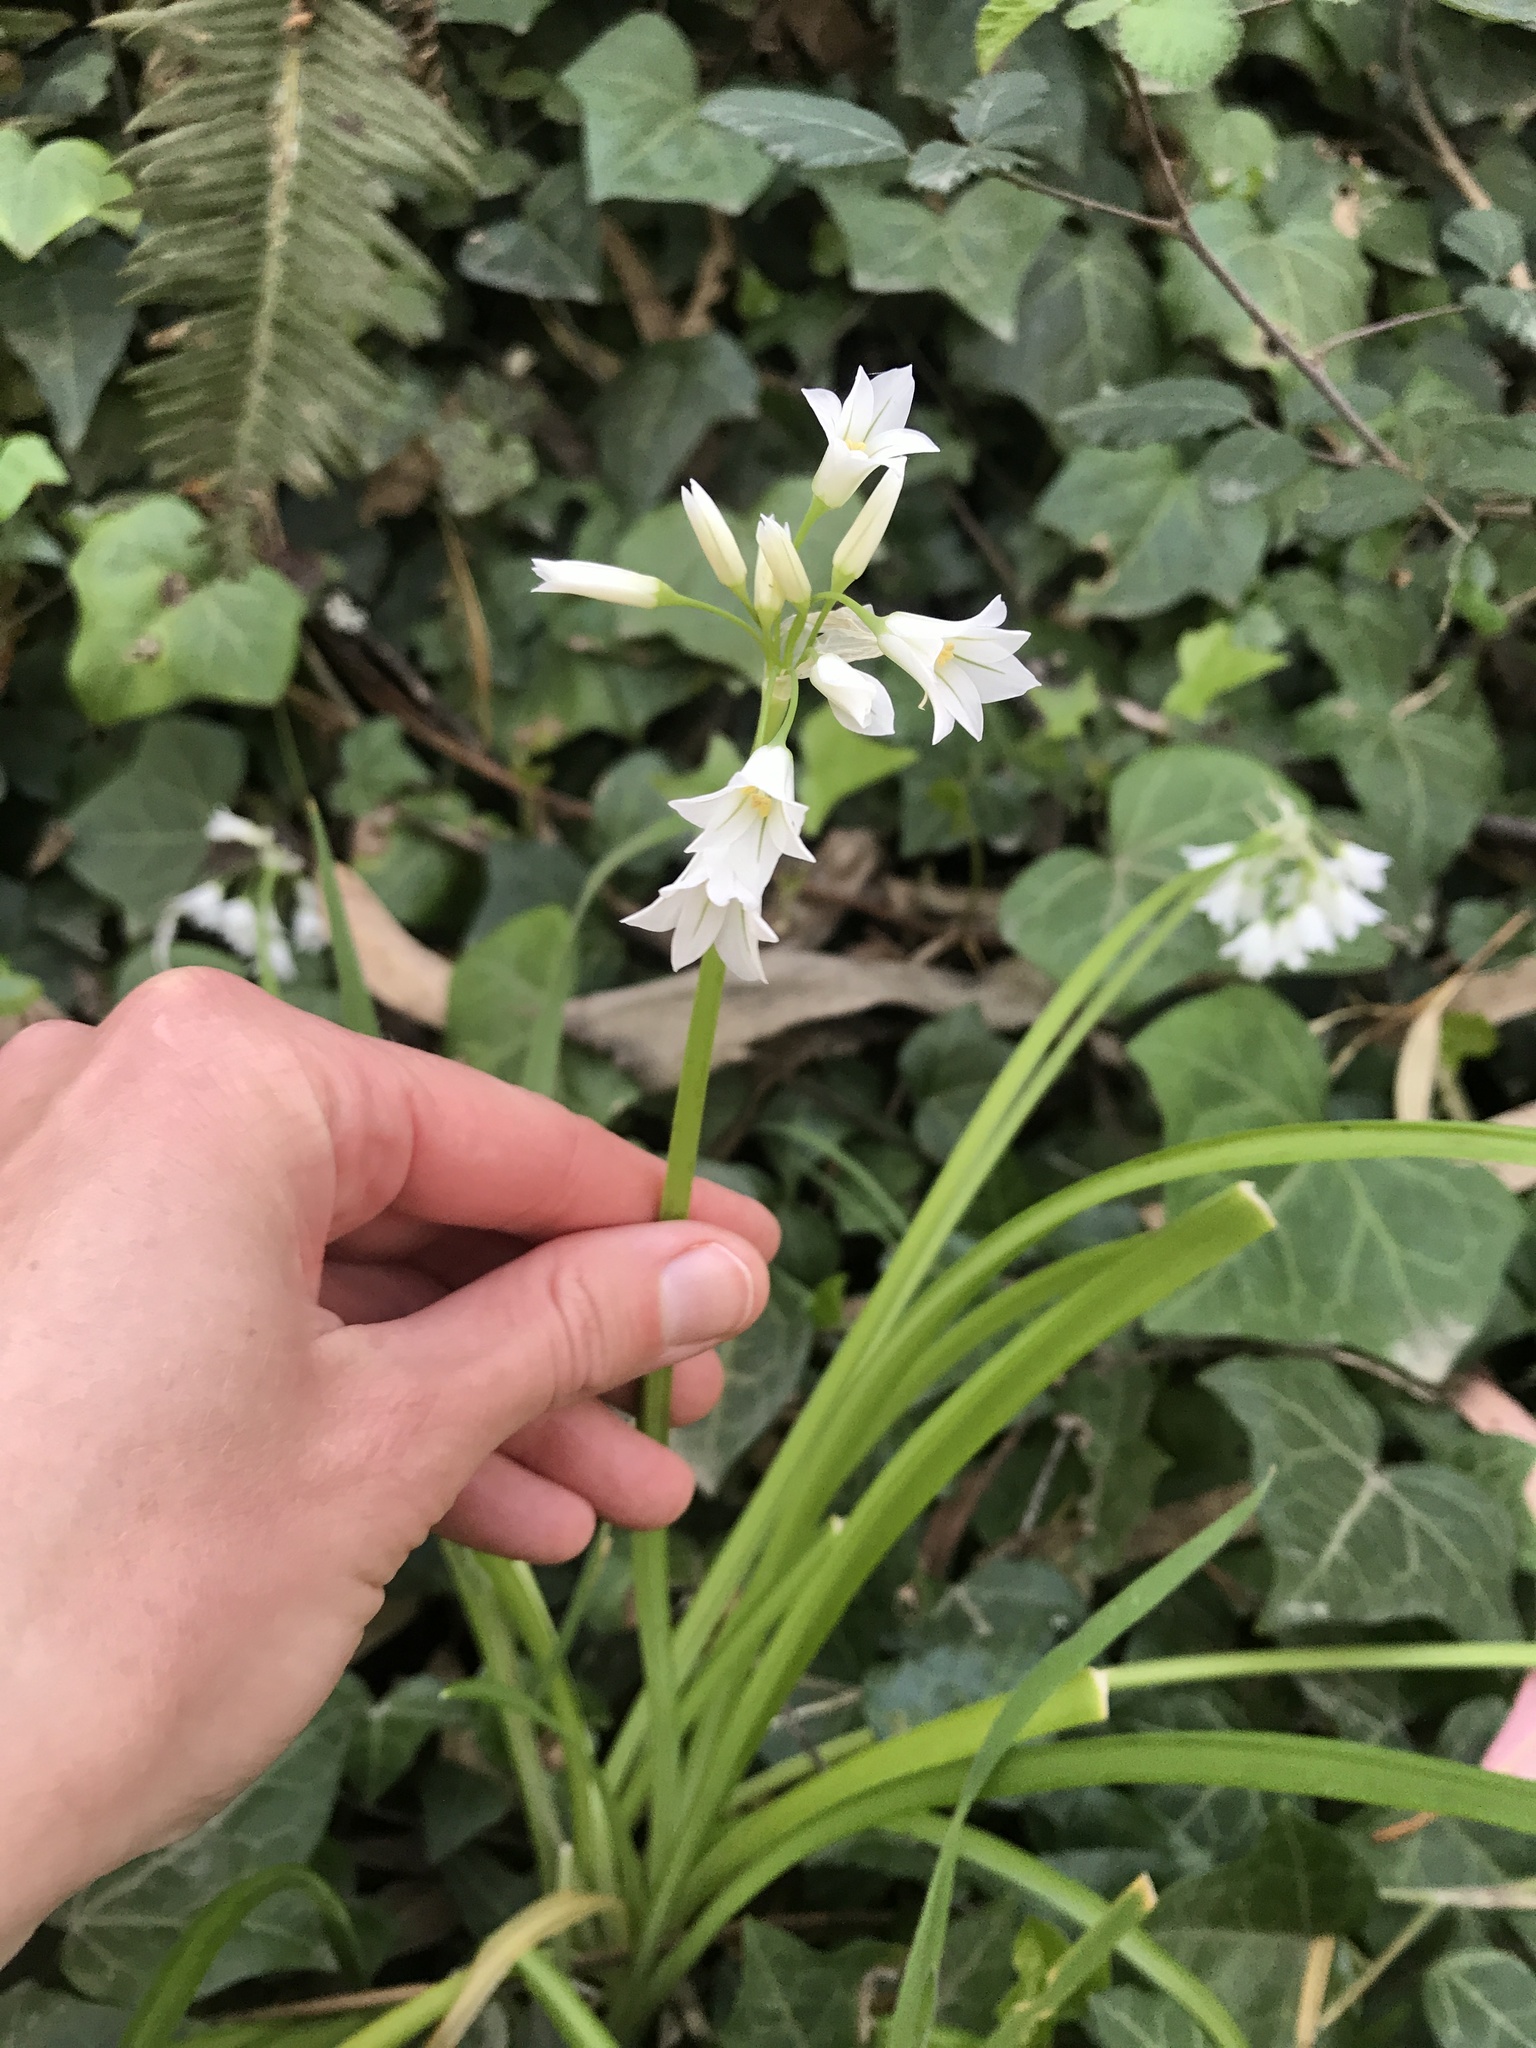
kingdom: Plantae
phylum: Tracheophyta
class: Liliopsida
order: Asparagales
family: Amaryllidaceae
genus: Allium
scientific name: Allium triquetrum
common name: Three-cornered garlic
